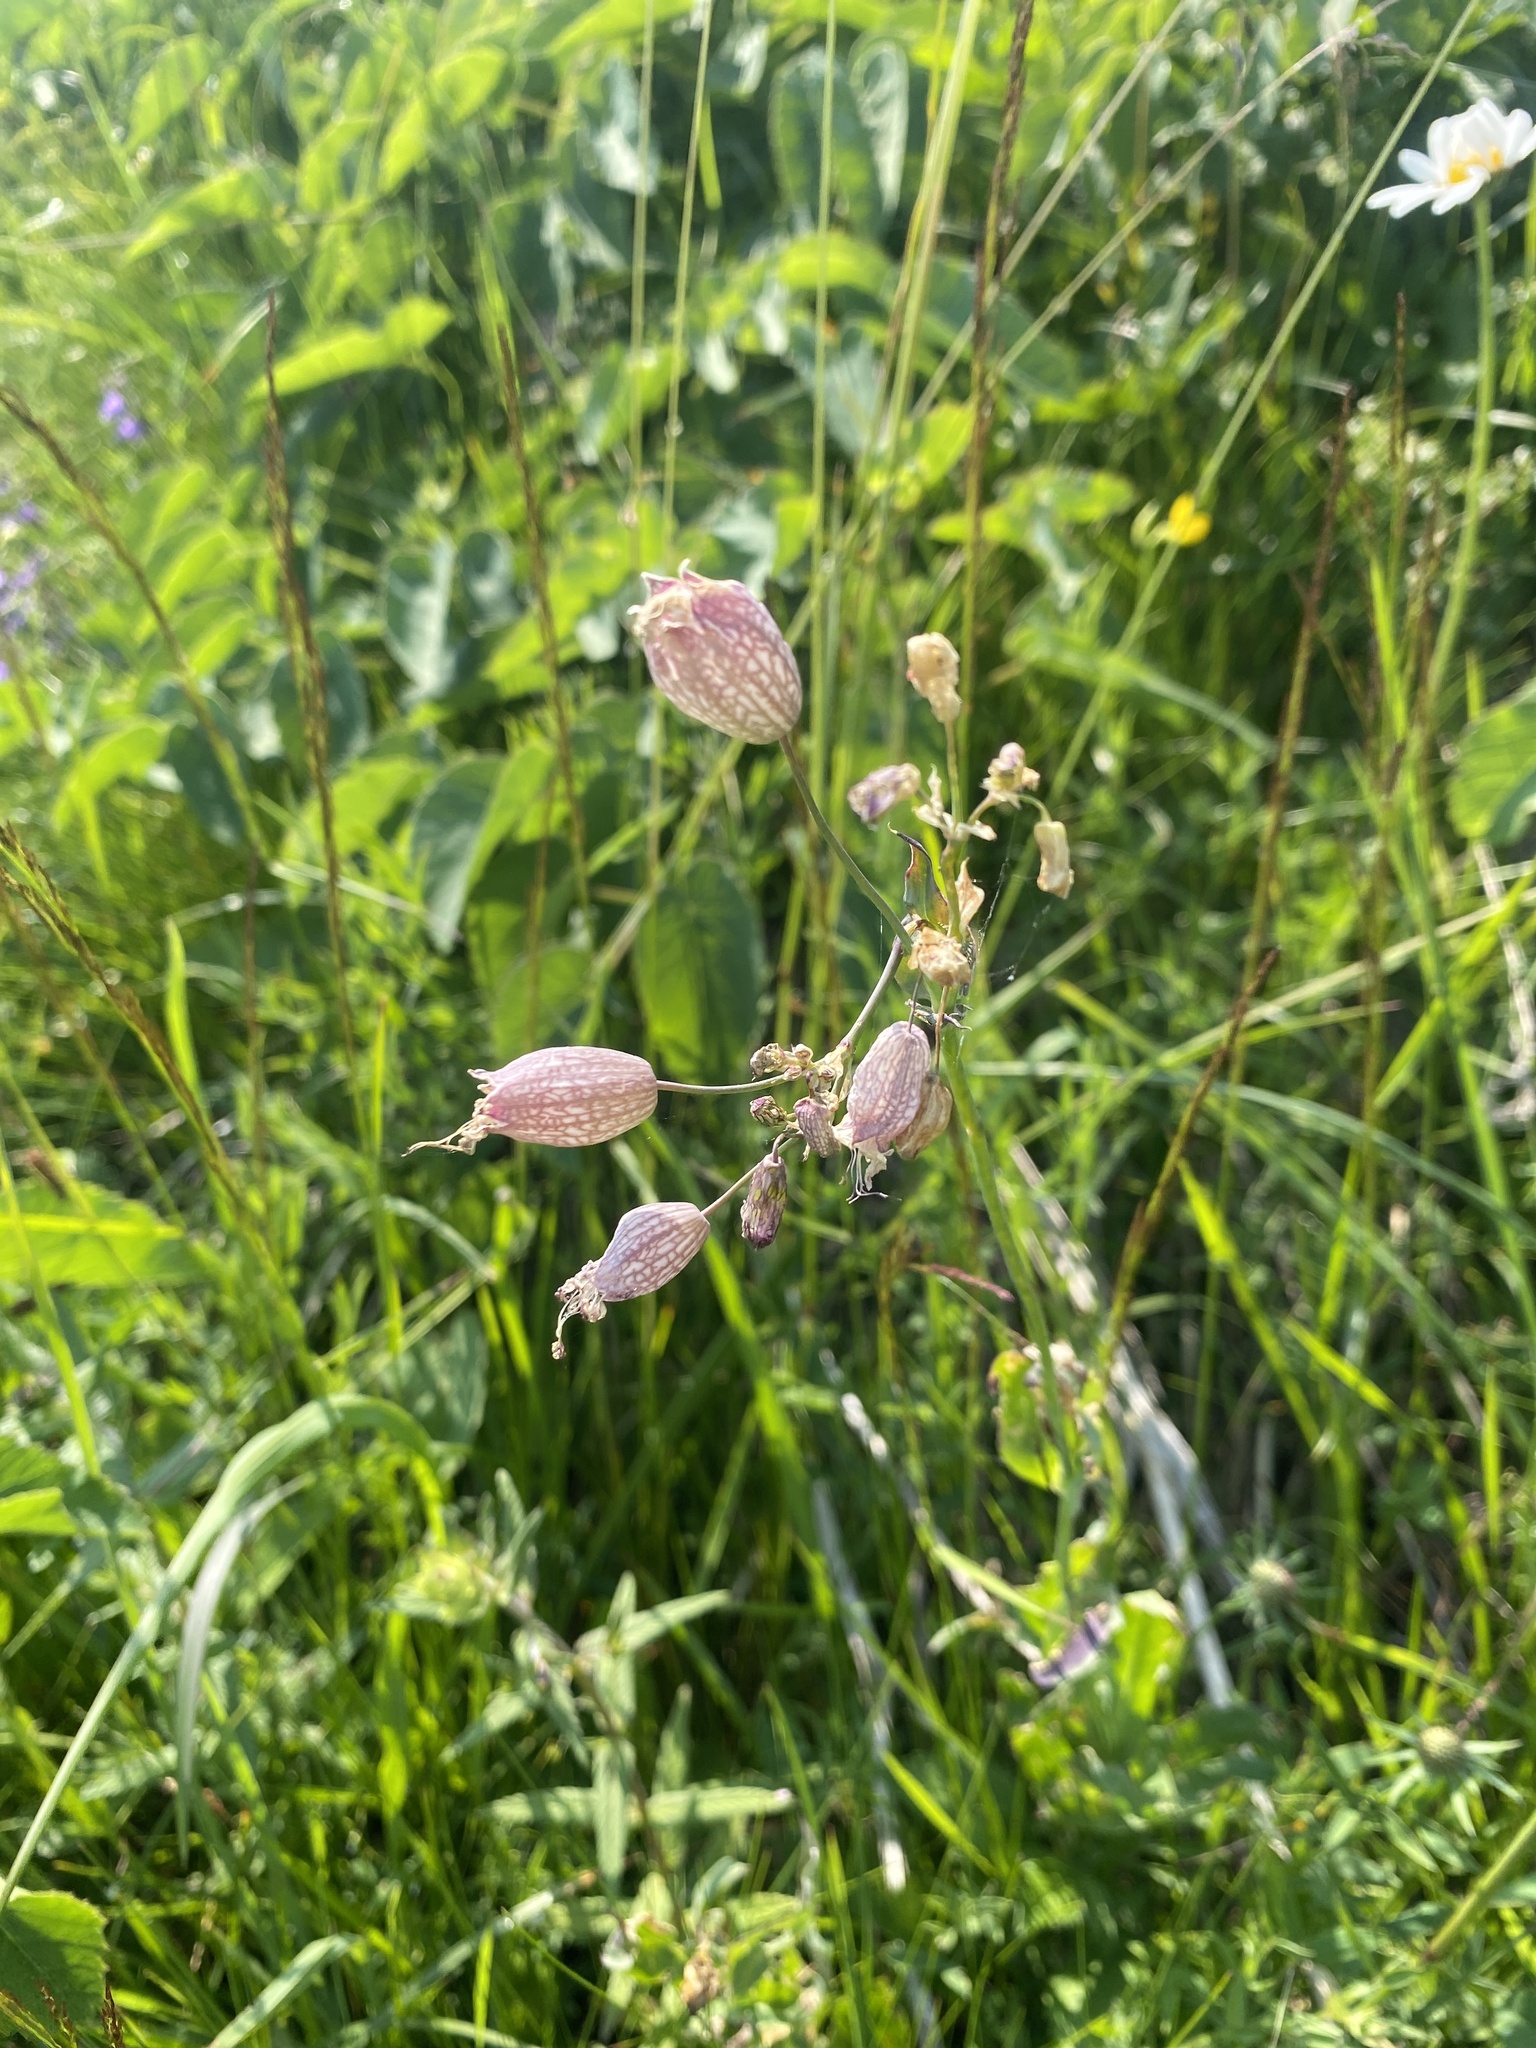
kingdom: Plantae
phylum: Tracheophyta
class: Magnoliopsida
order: Caryophyllales
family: Caryophyllaceae
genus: Silene
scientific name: Silene vulgaris
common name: Bladder campion
